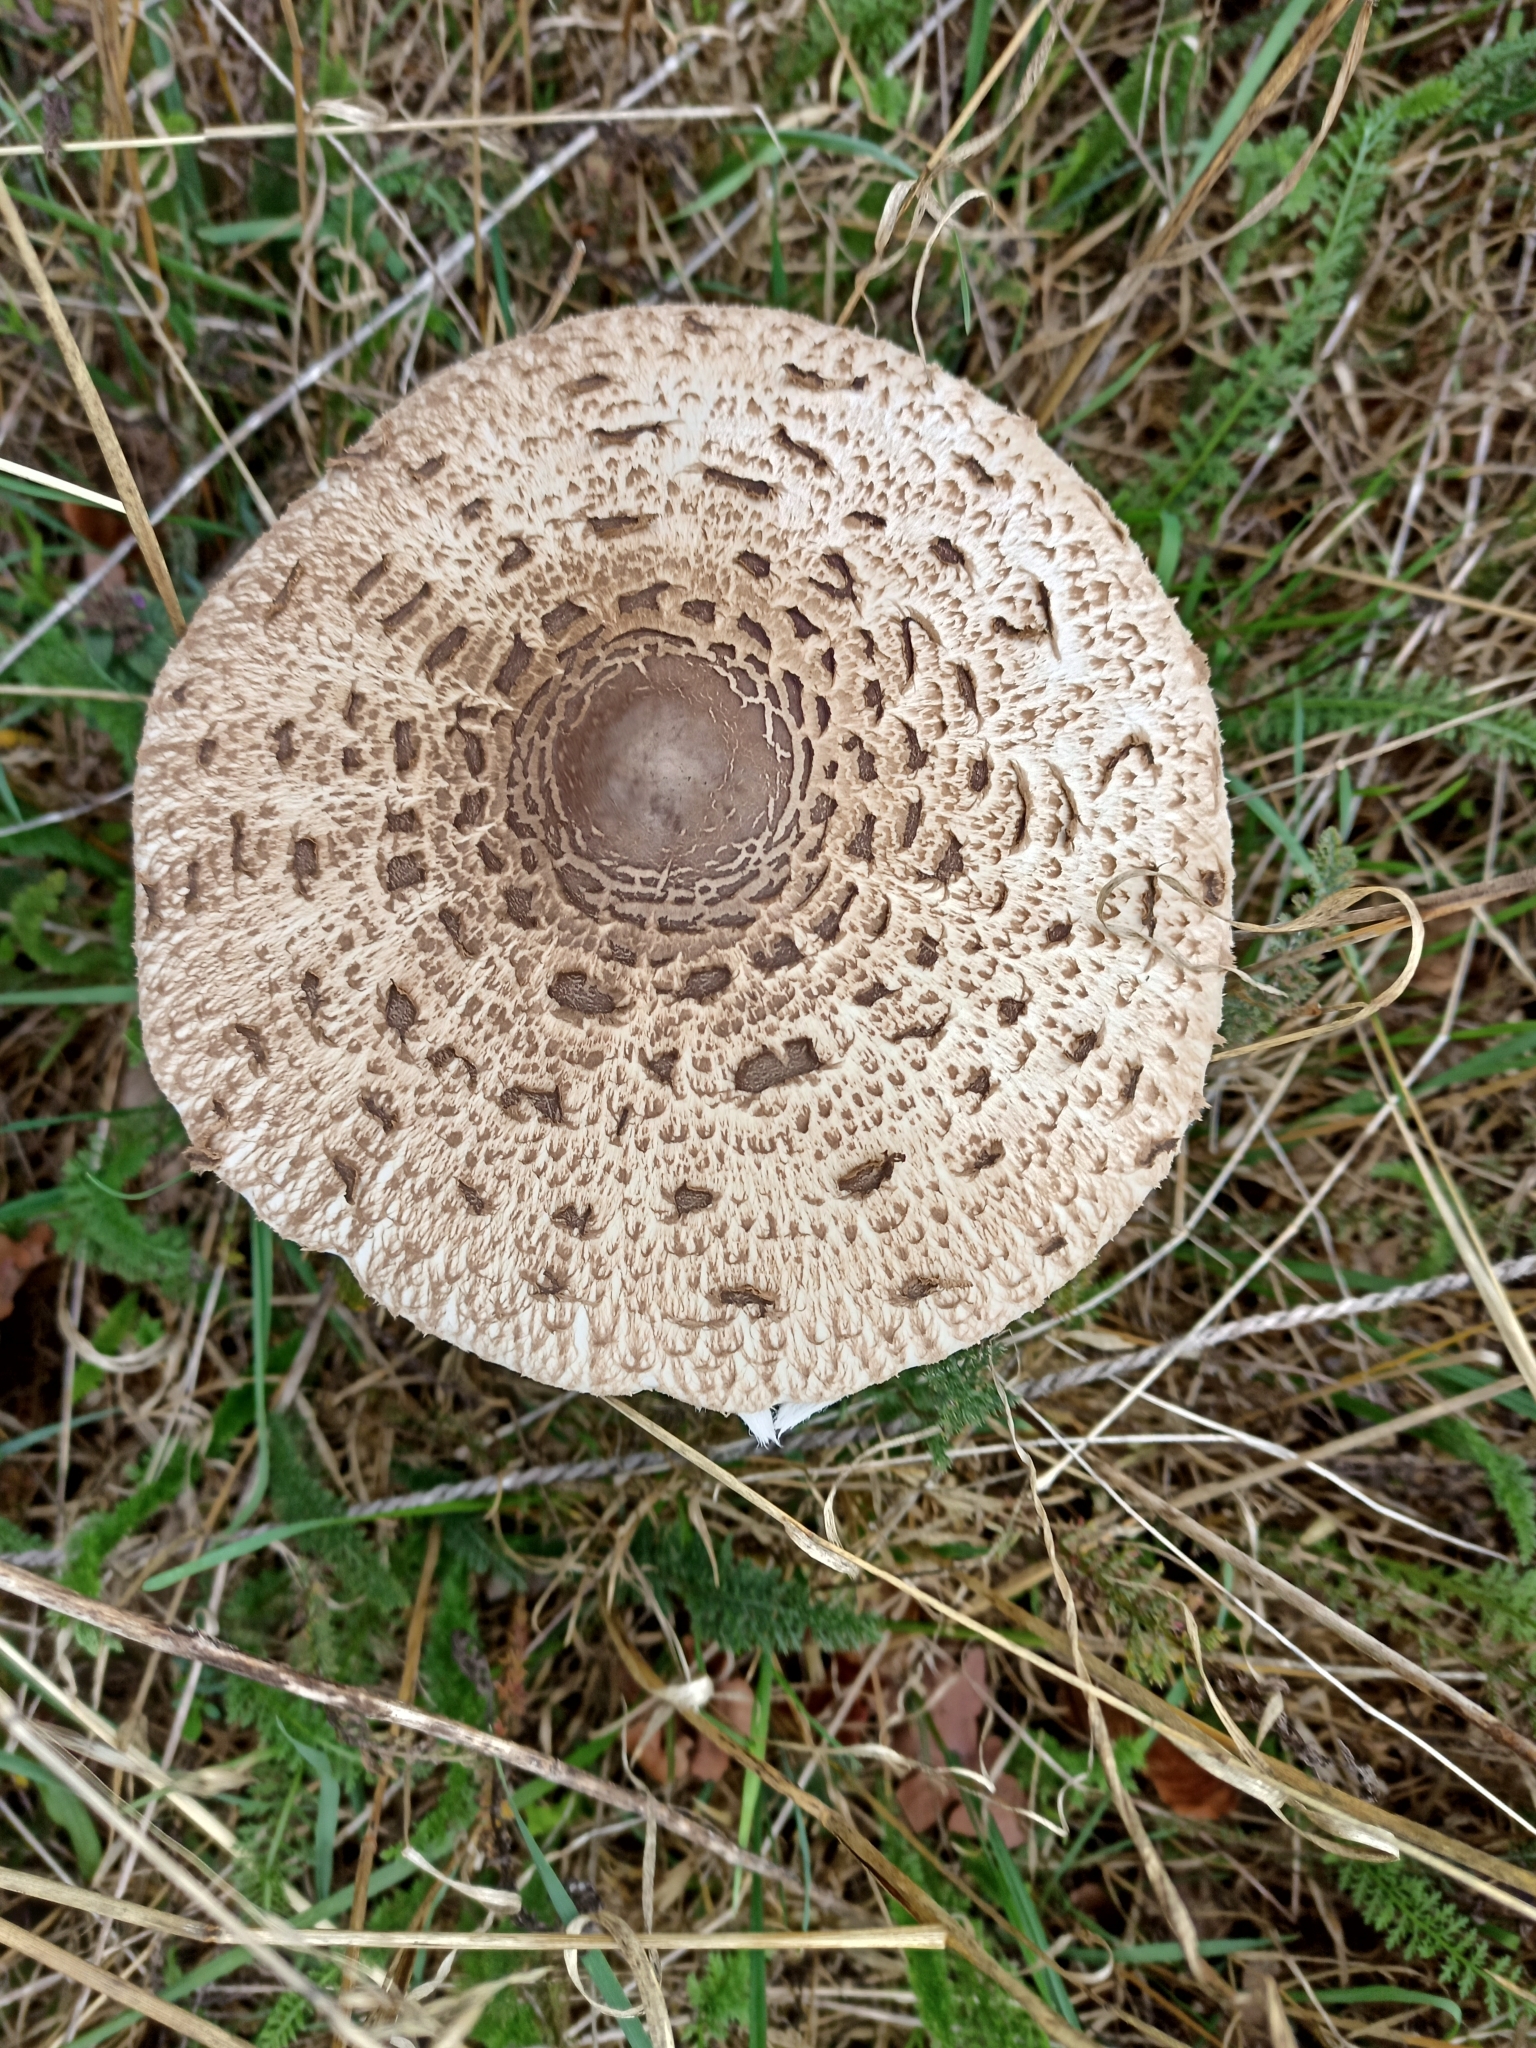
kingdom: Fungi
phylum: Basidiomycota
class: Agaricomycetes
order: Agaricales
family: Agaricaceae
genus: Macrolepiota
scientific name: Macrolepiota procera
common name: Parasol
